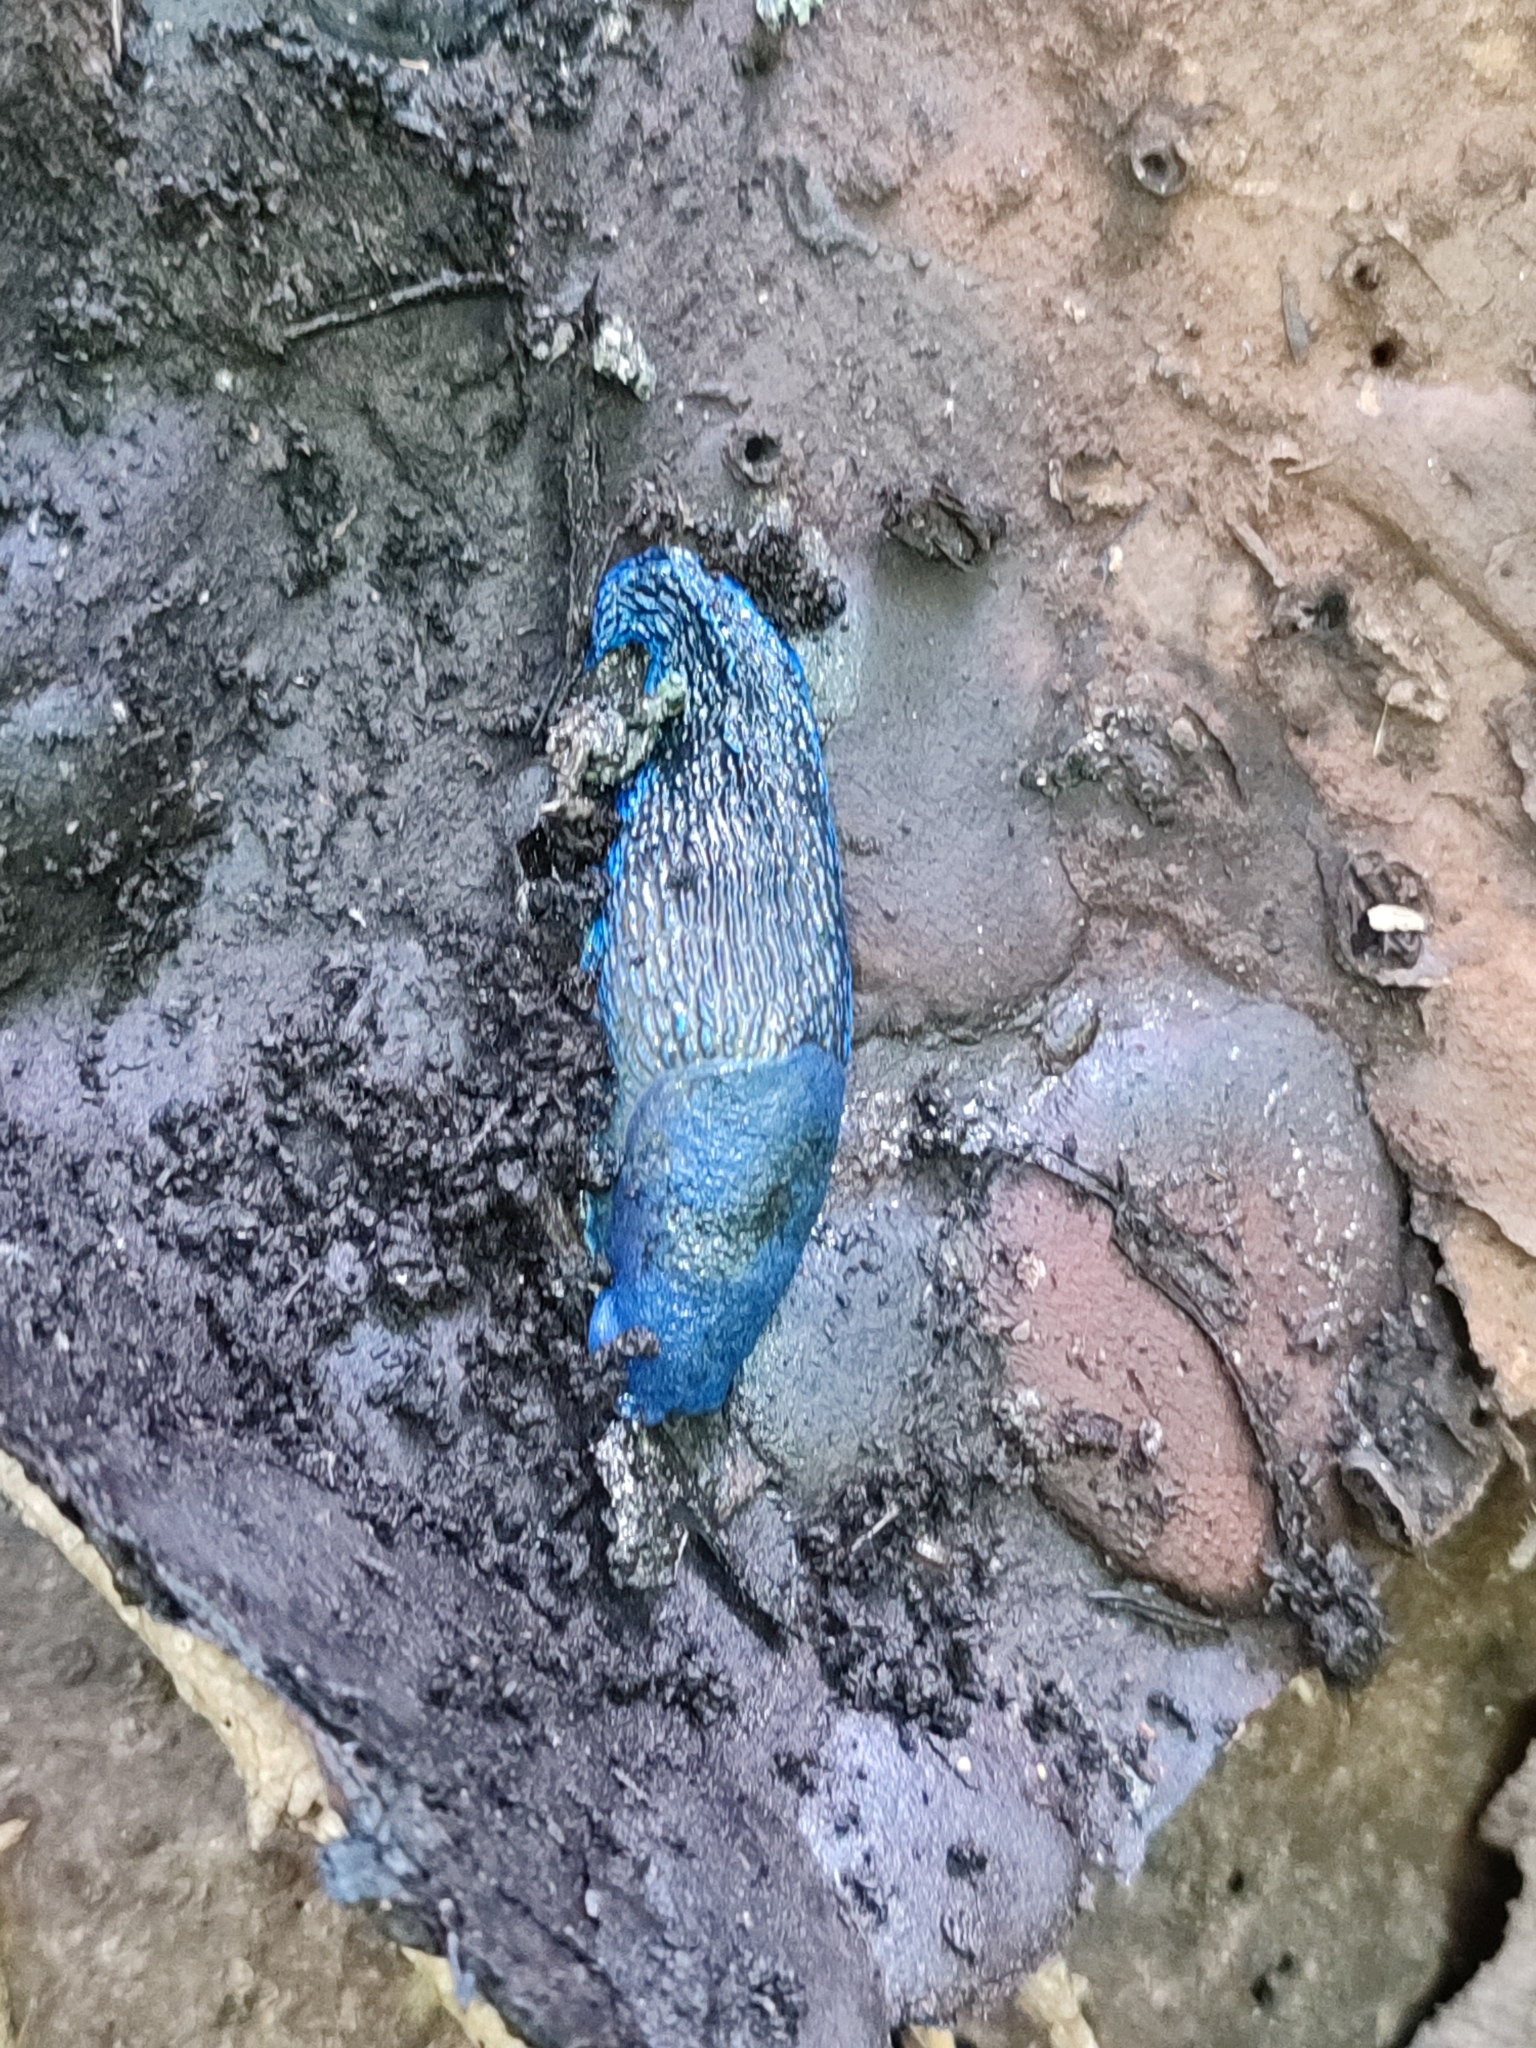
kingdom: Animalia
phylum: Mollusca
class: Gastropoda
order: Stylommatophora
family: Limacidae
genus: Bielzia
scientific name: Bielzia coerulans
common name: Carpathian blue slug
